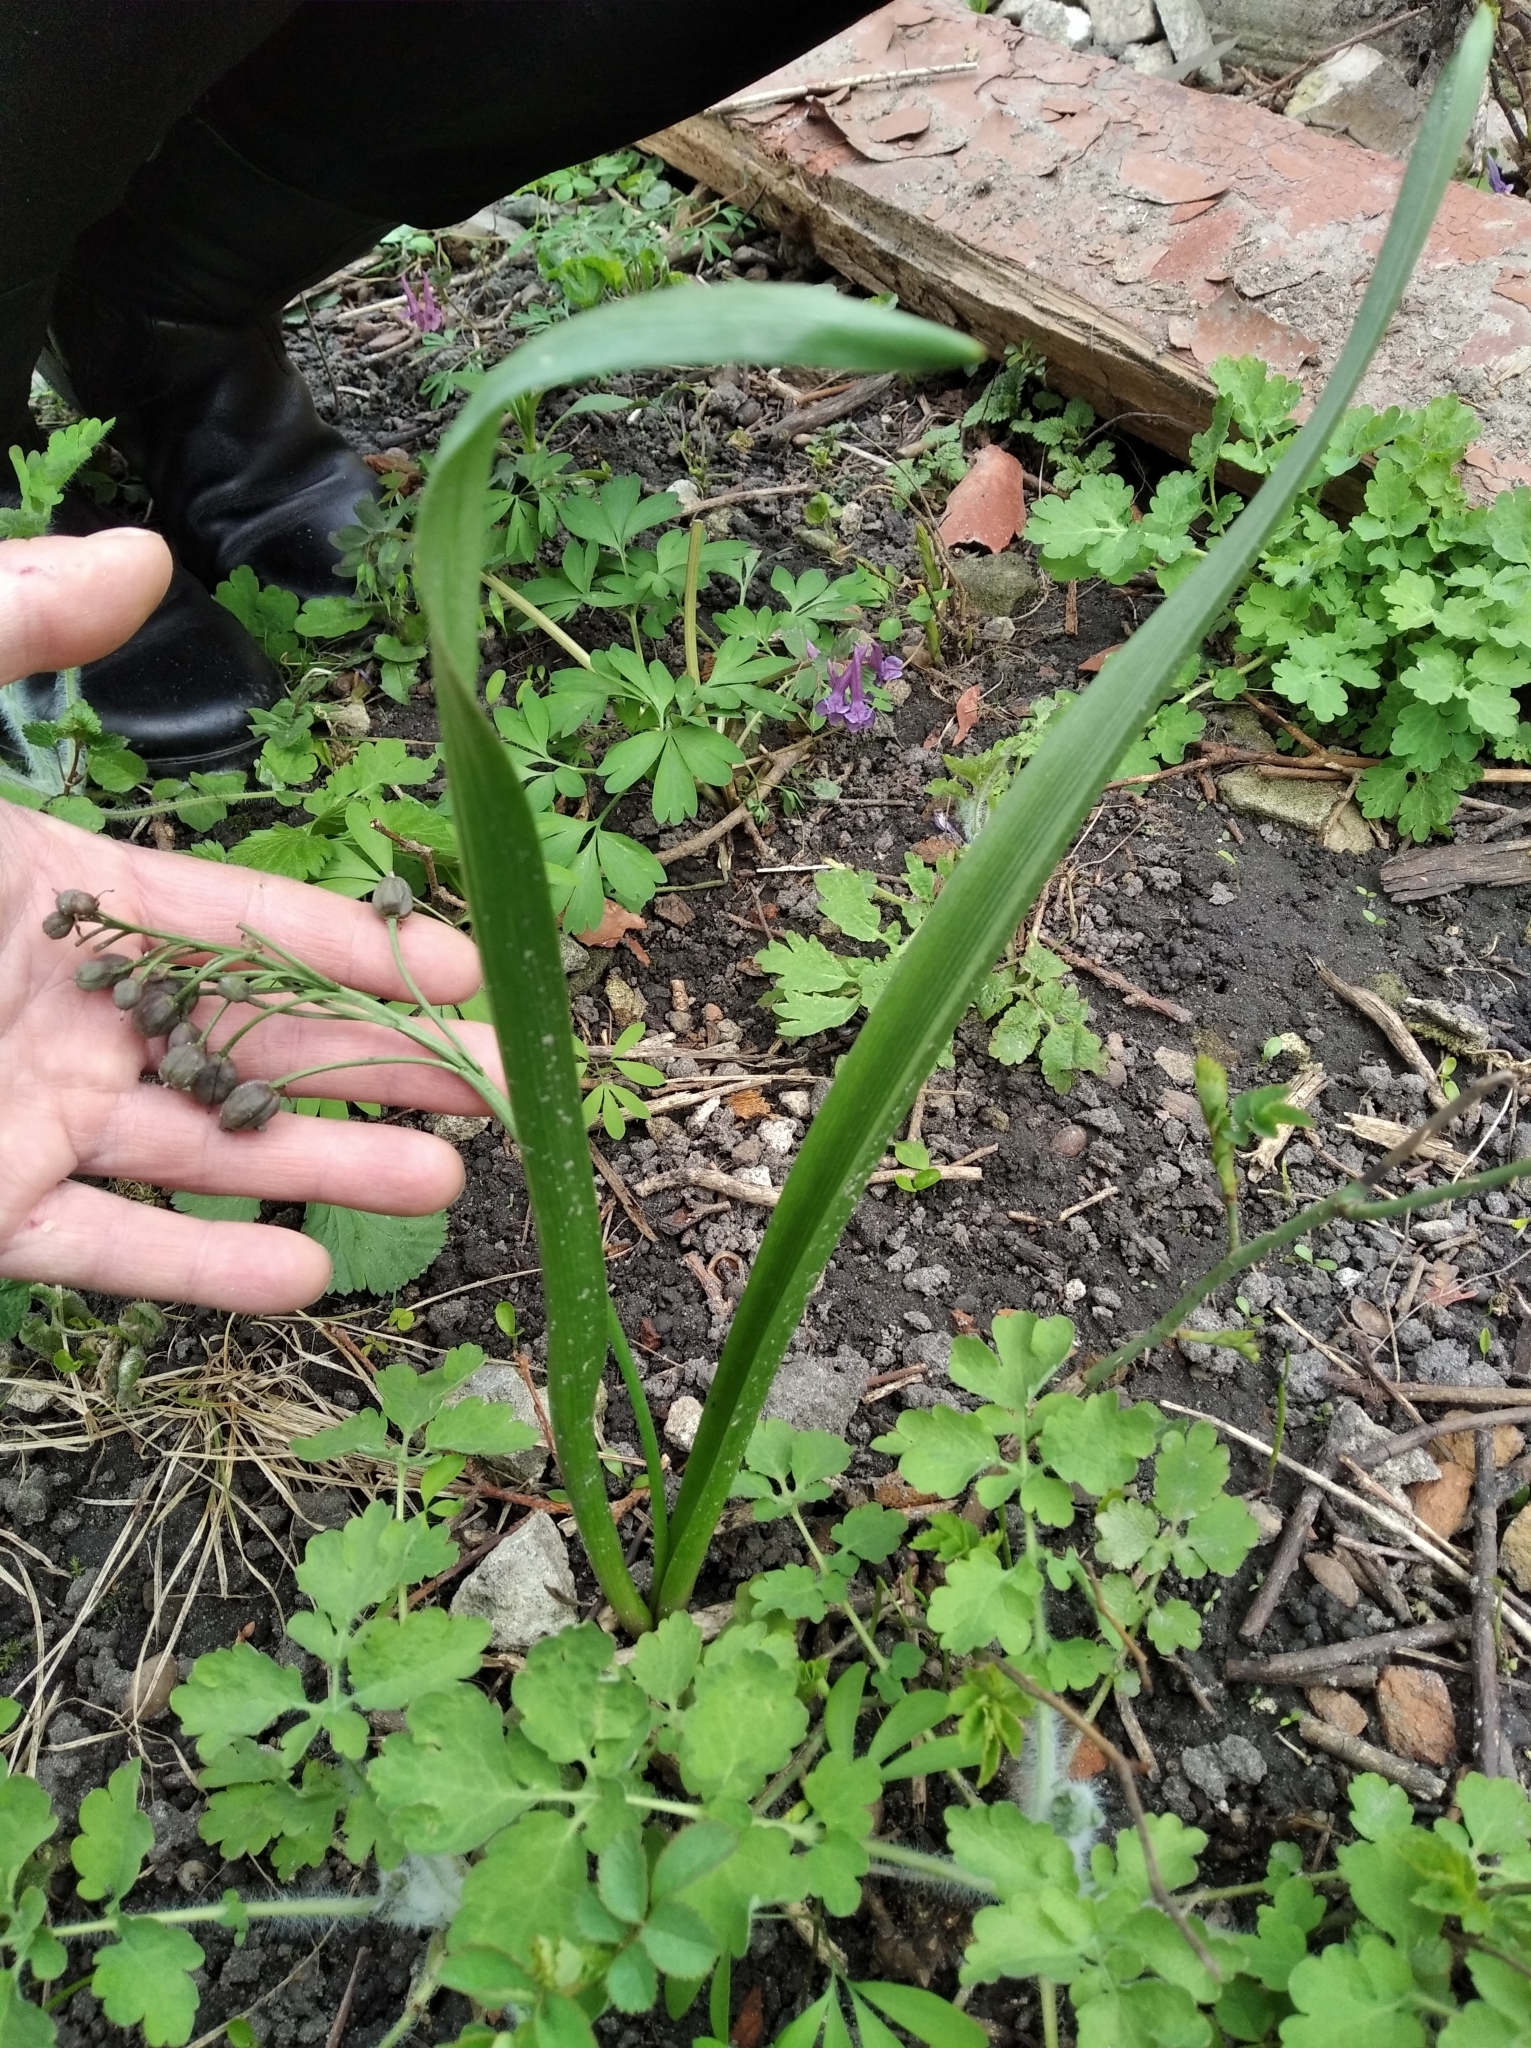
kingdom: Plantae
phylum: Tracheophyta
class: Liliopsida
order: Asparagales
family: Asparagaceae
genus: Scilla
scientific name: Scilla bifolia
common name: Alpine squill
